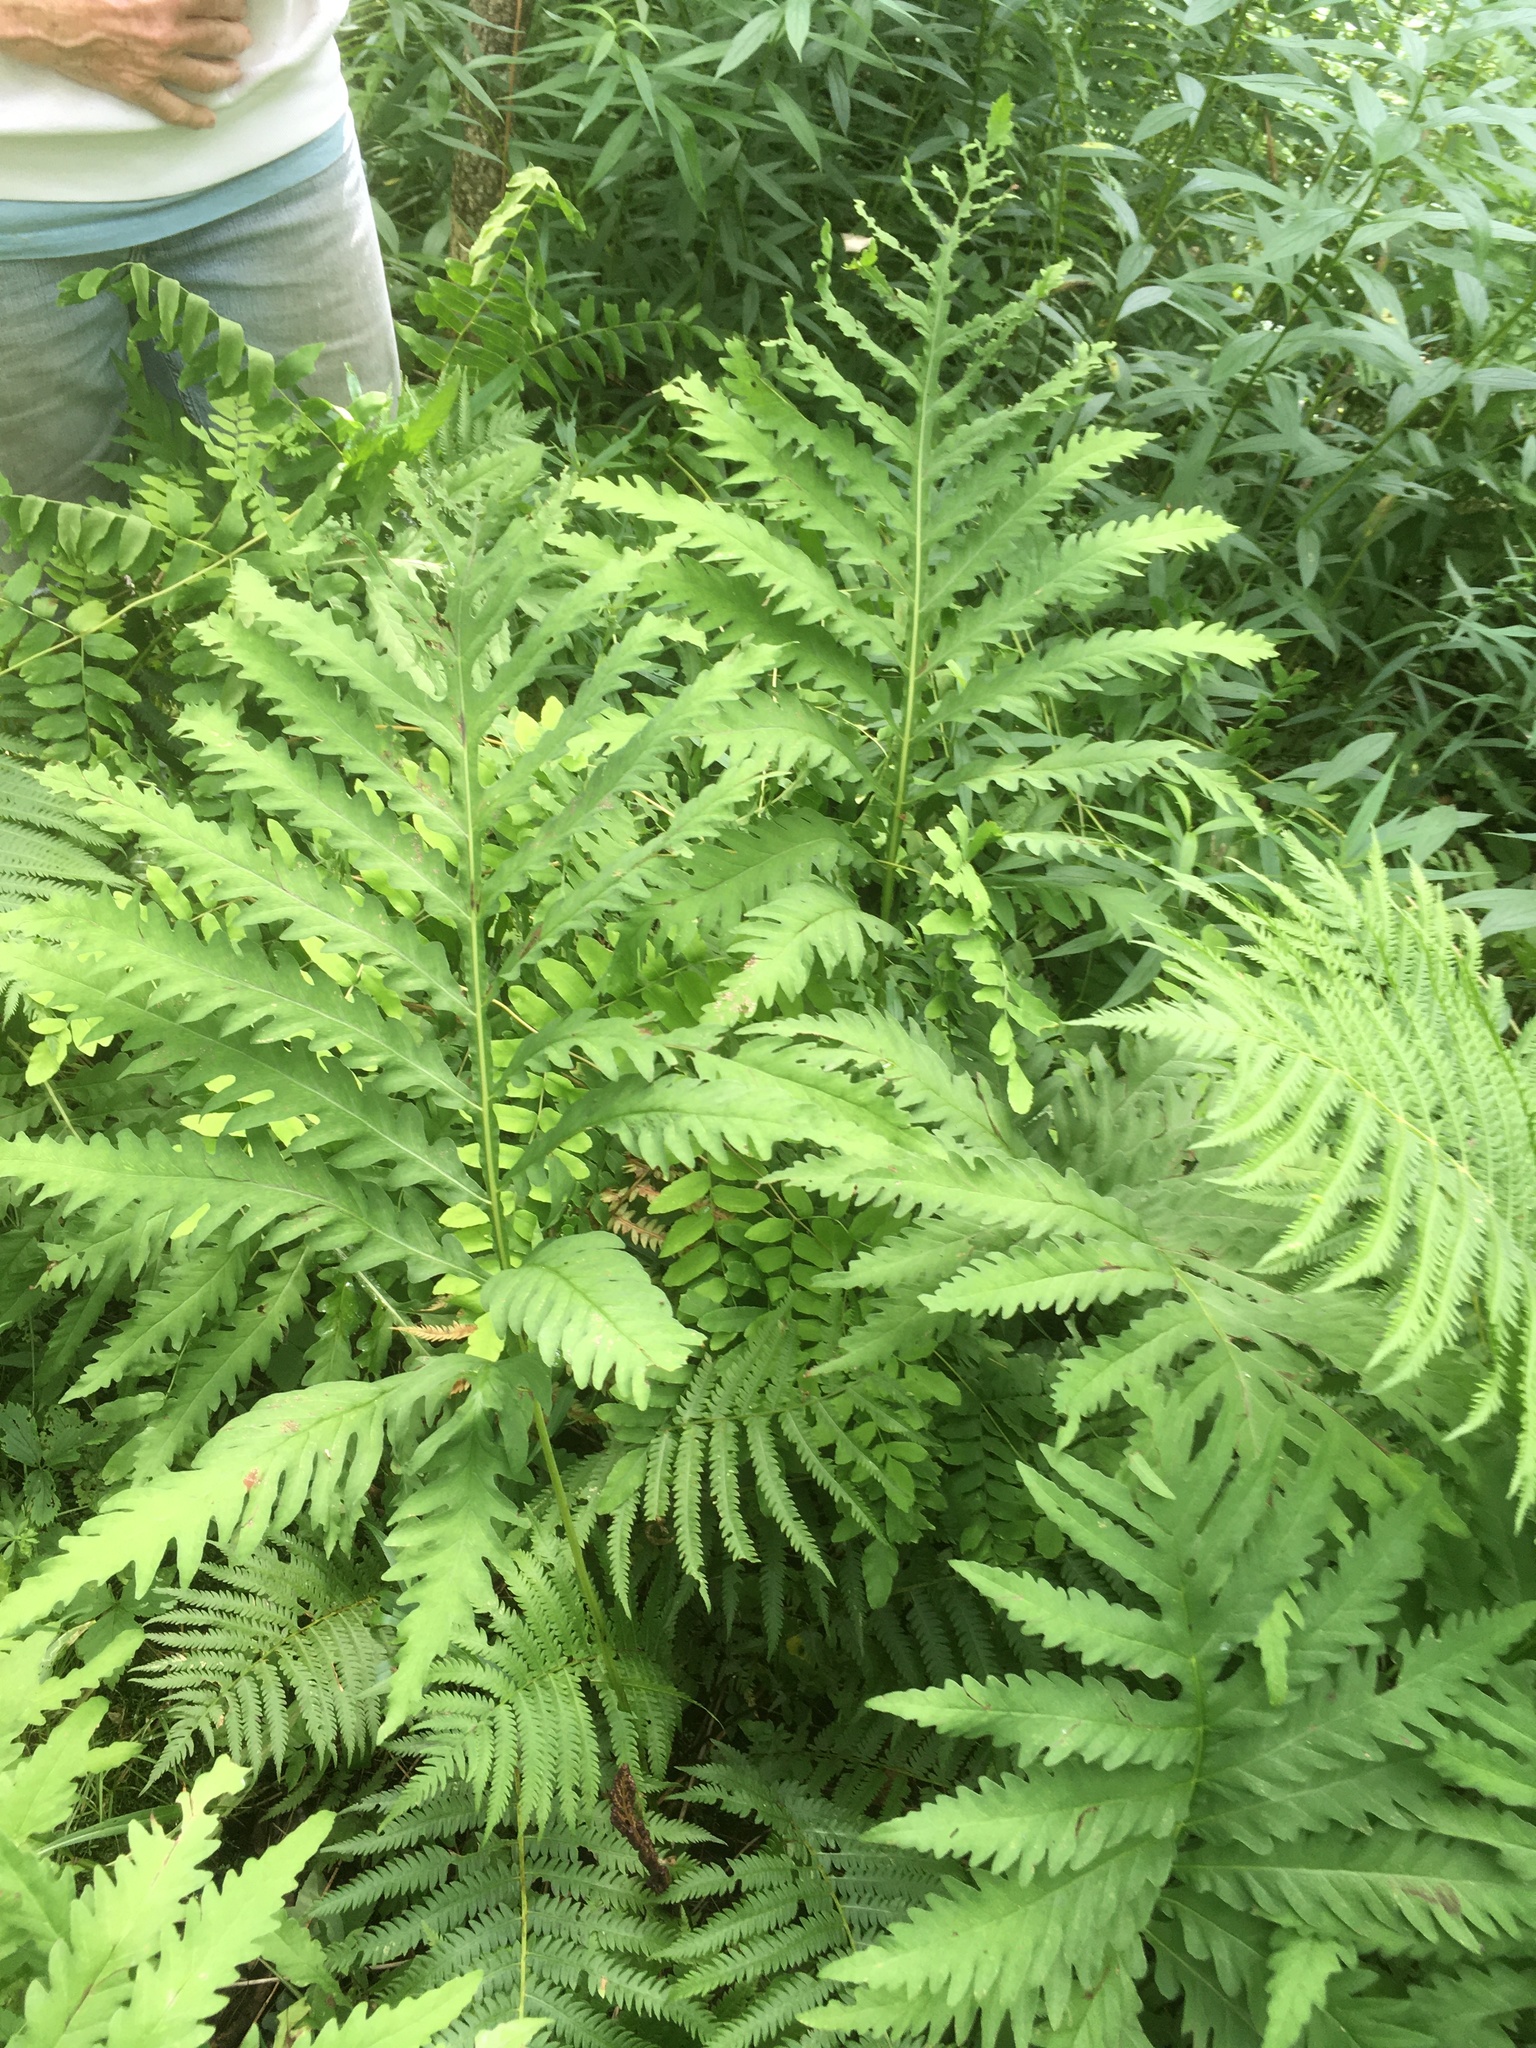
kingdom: Plantae
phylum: Tracheophyta
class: Polypodiopsida
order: Polypodiales
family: Onocleaceae
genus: Onoclea
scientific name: Onoclea sensibilis
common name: Sensitive fern
